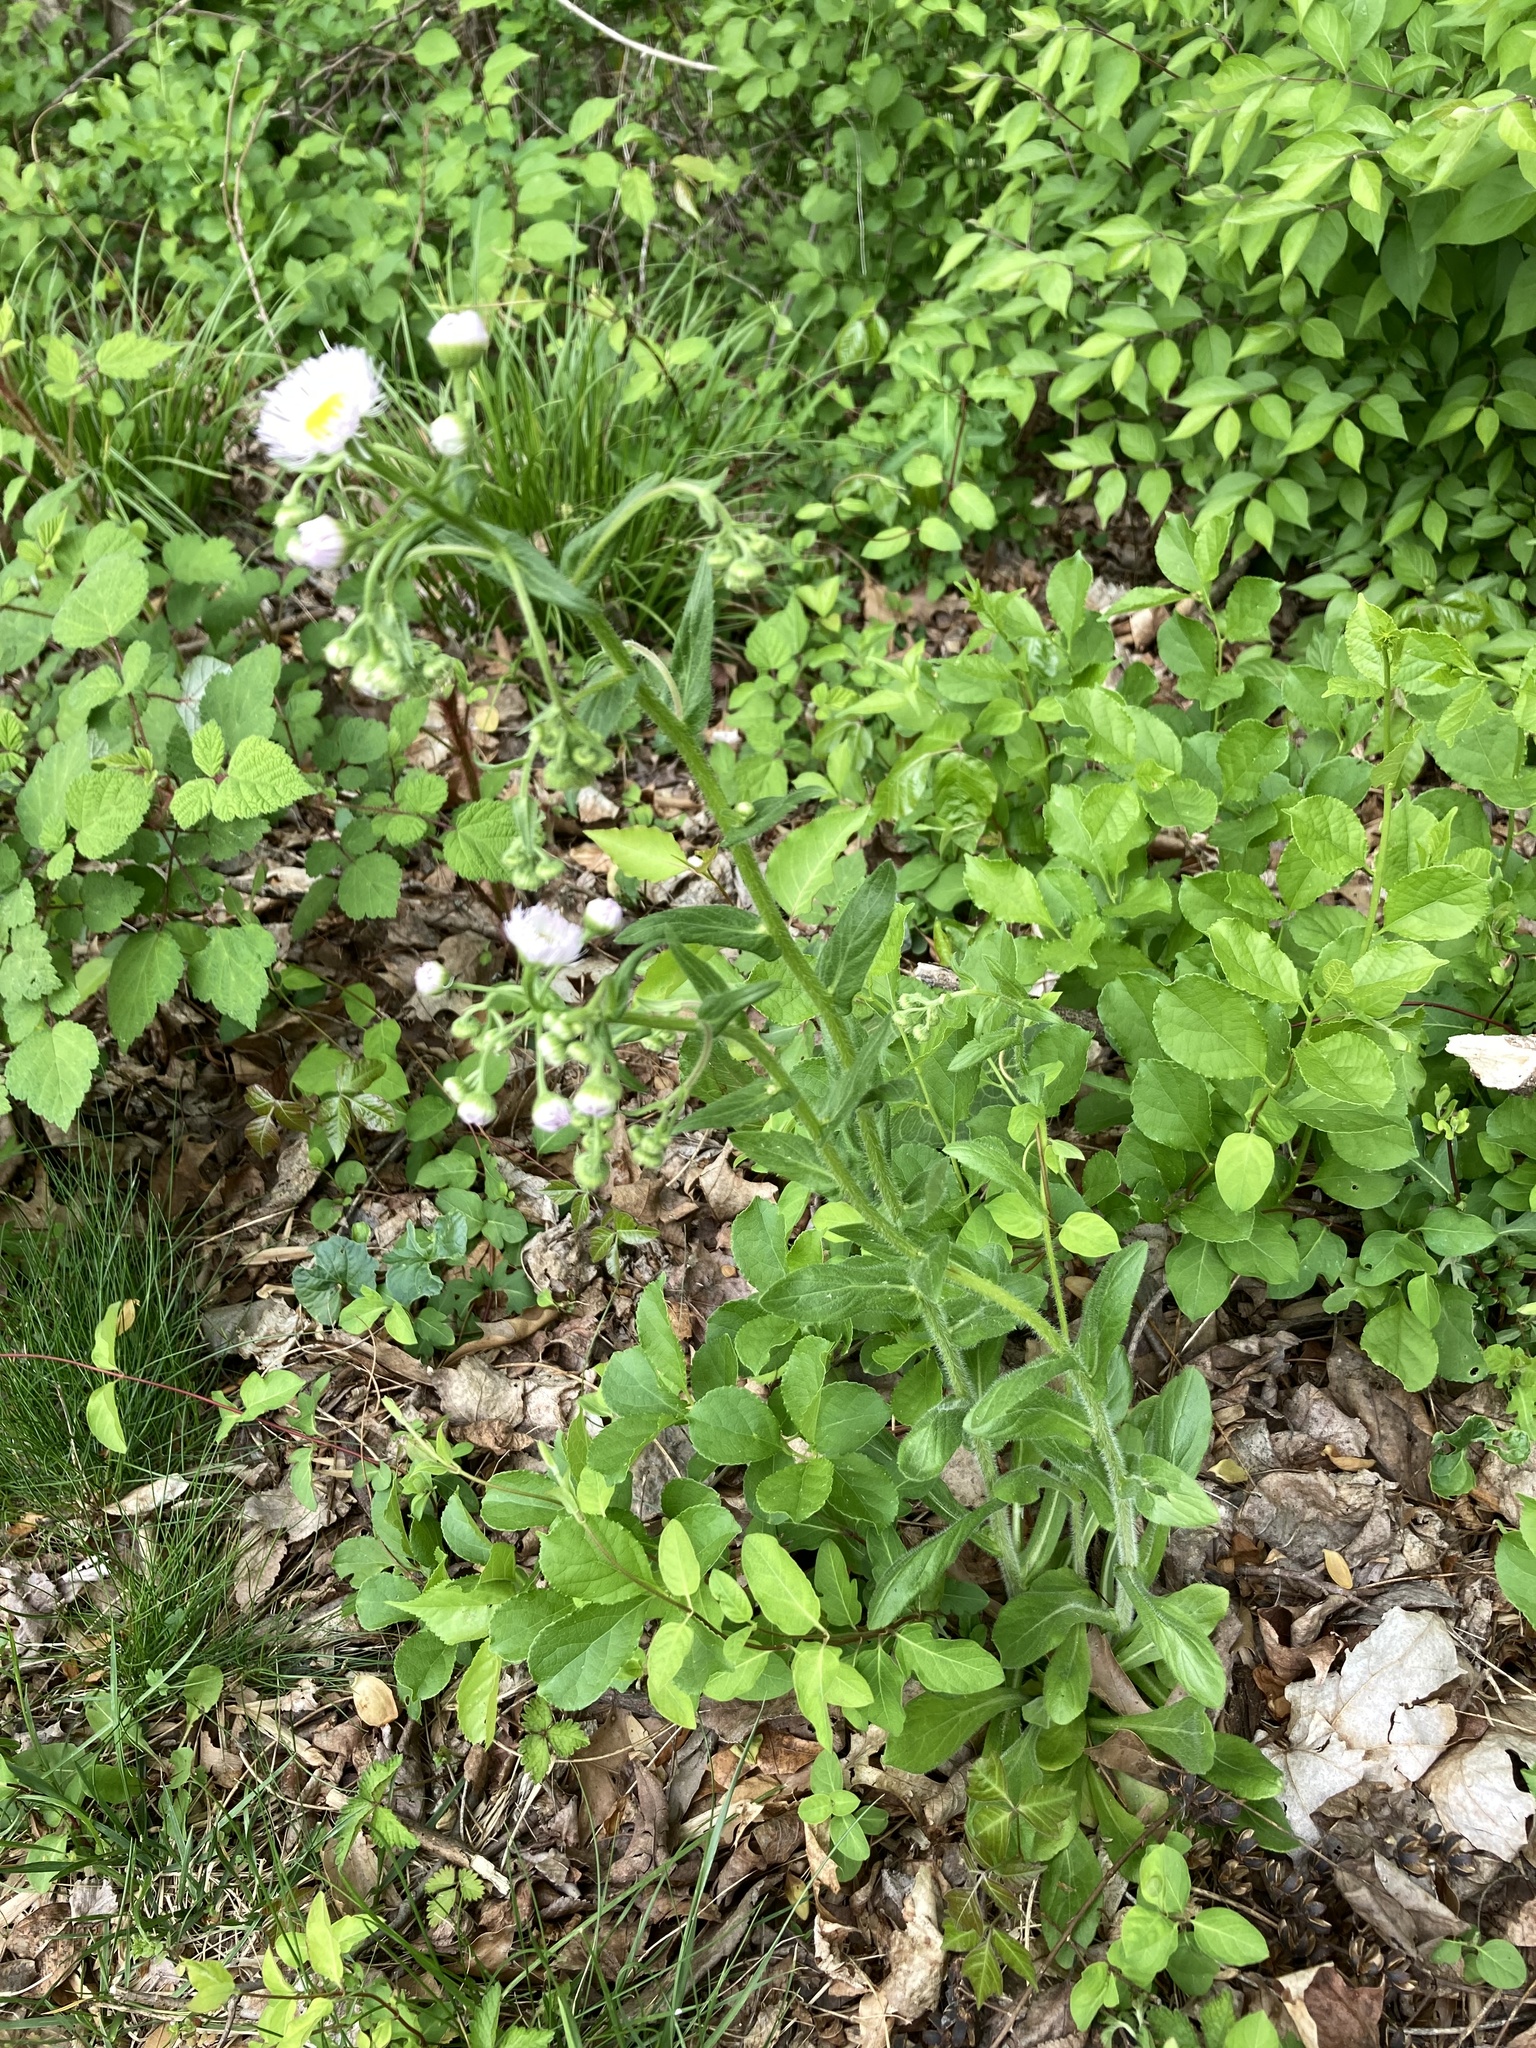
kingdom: Plantae
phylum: Tracheophyta
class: Magnoliopsida
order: Asterales
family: Asteraceae
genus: Erigeron
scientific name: Erigeron philadelphicus
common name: Robin's-plantain
